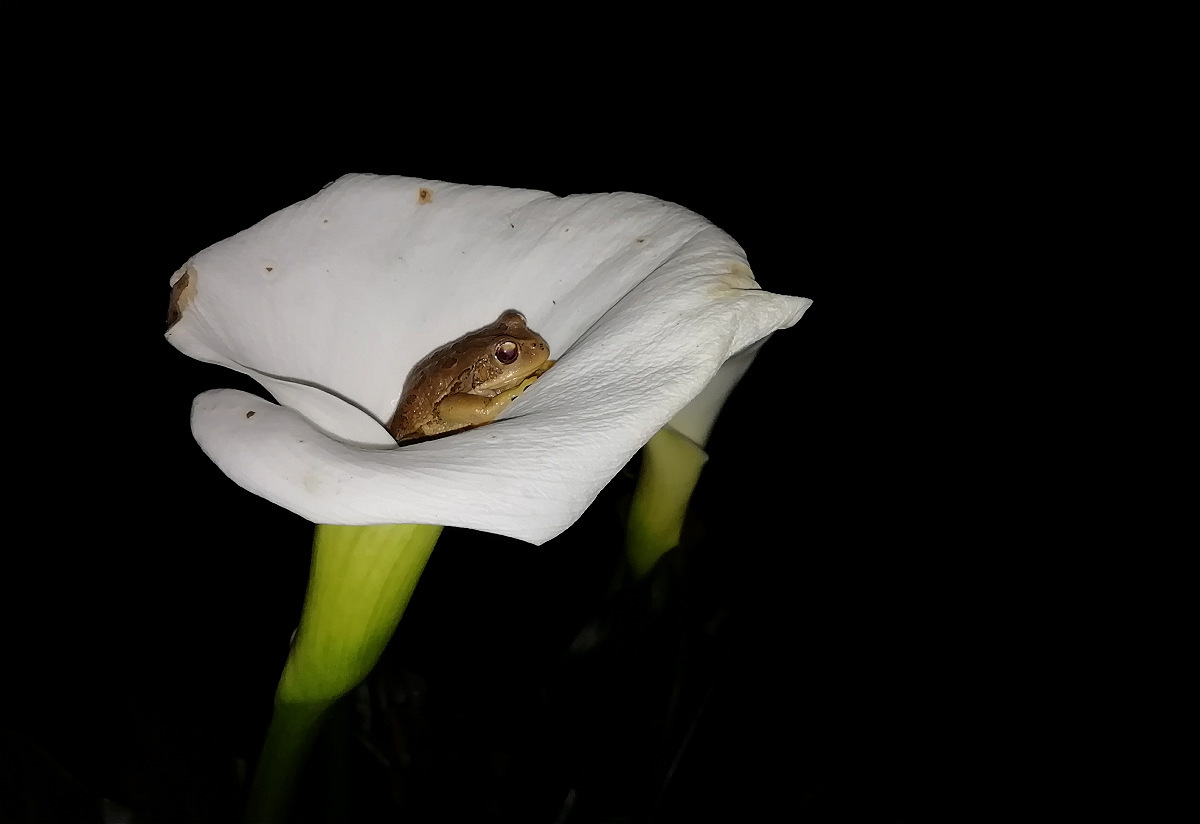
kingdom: Animalia
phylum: Chordata
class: Amphibia
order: Anura
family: Hemiphractidae
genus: Gastrotheca
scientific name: Gastrotheca cuencana
